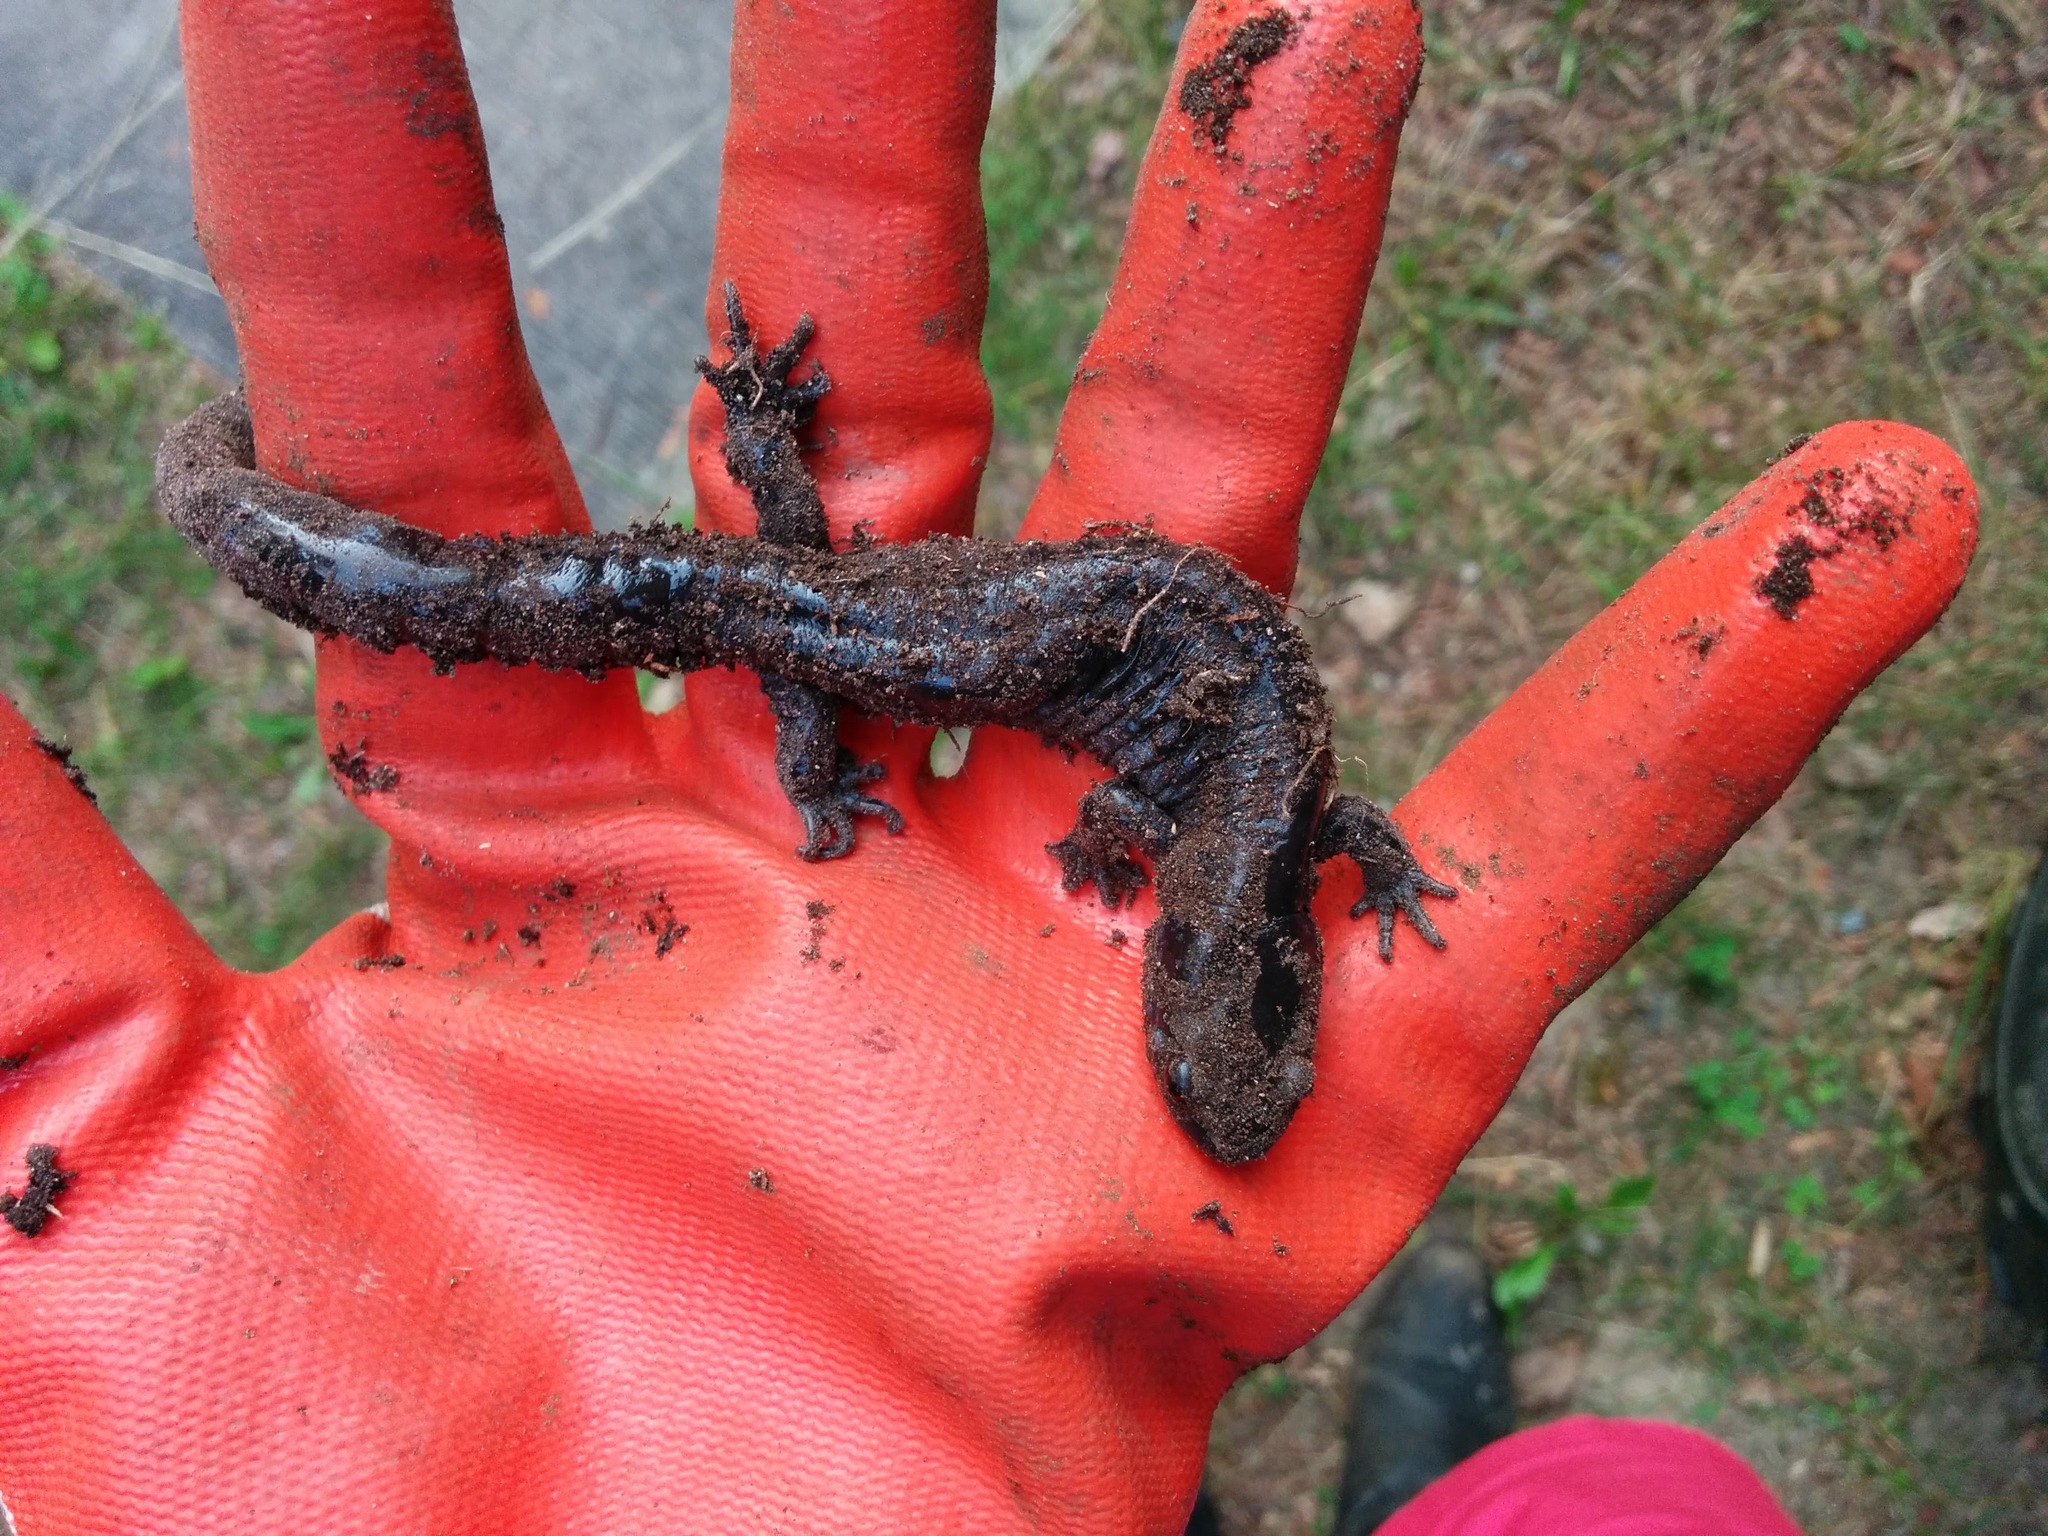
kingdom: Animalia
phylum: Chordata
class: Amphibia
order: Caudata
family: Ambystomatidae
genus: Ambystoma
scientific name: Ambystoma laterale
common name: Blue-spotted salamander
